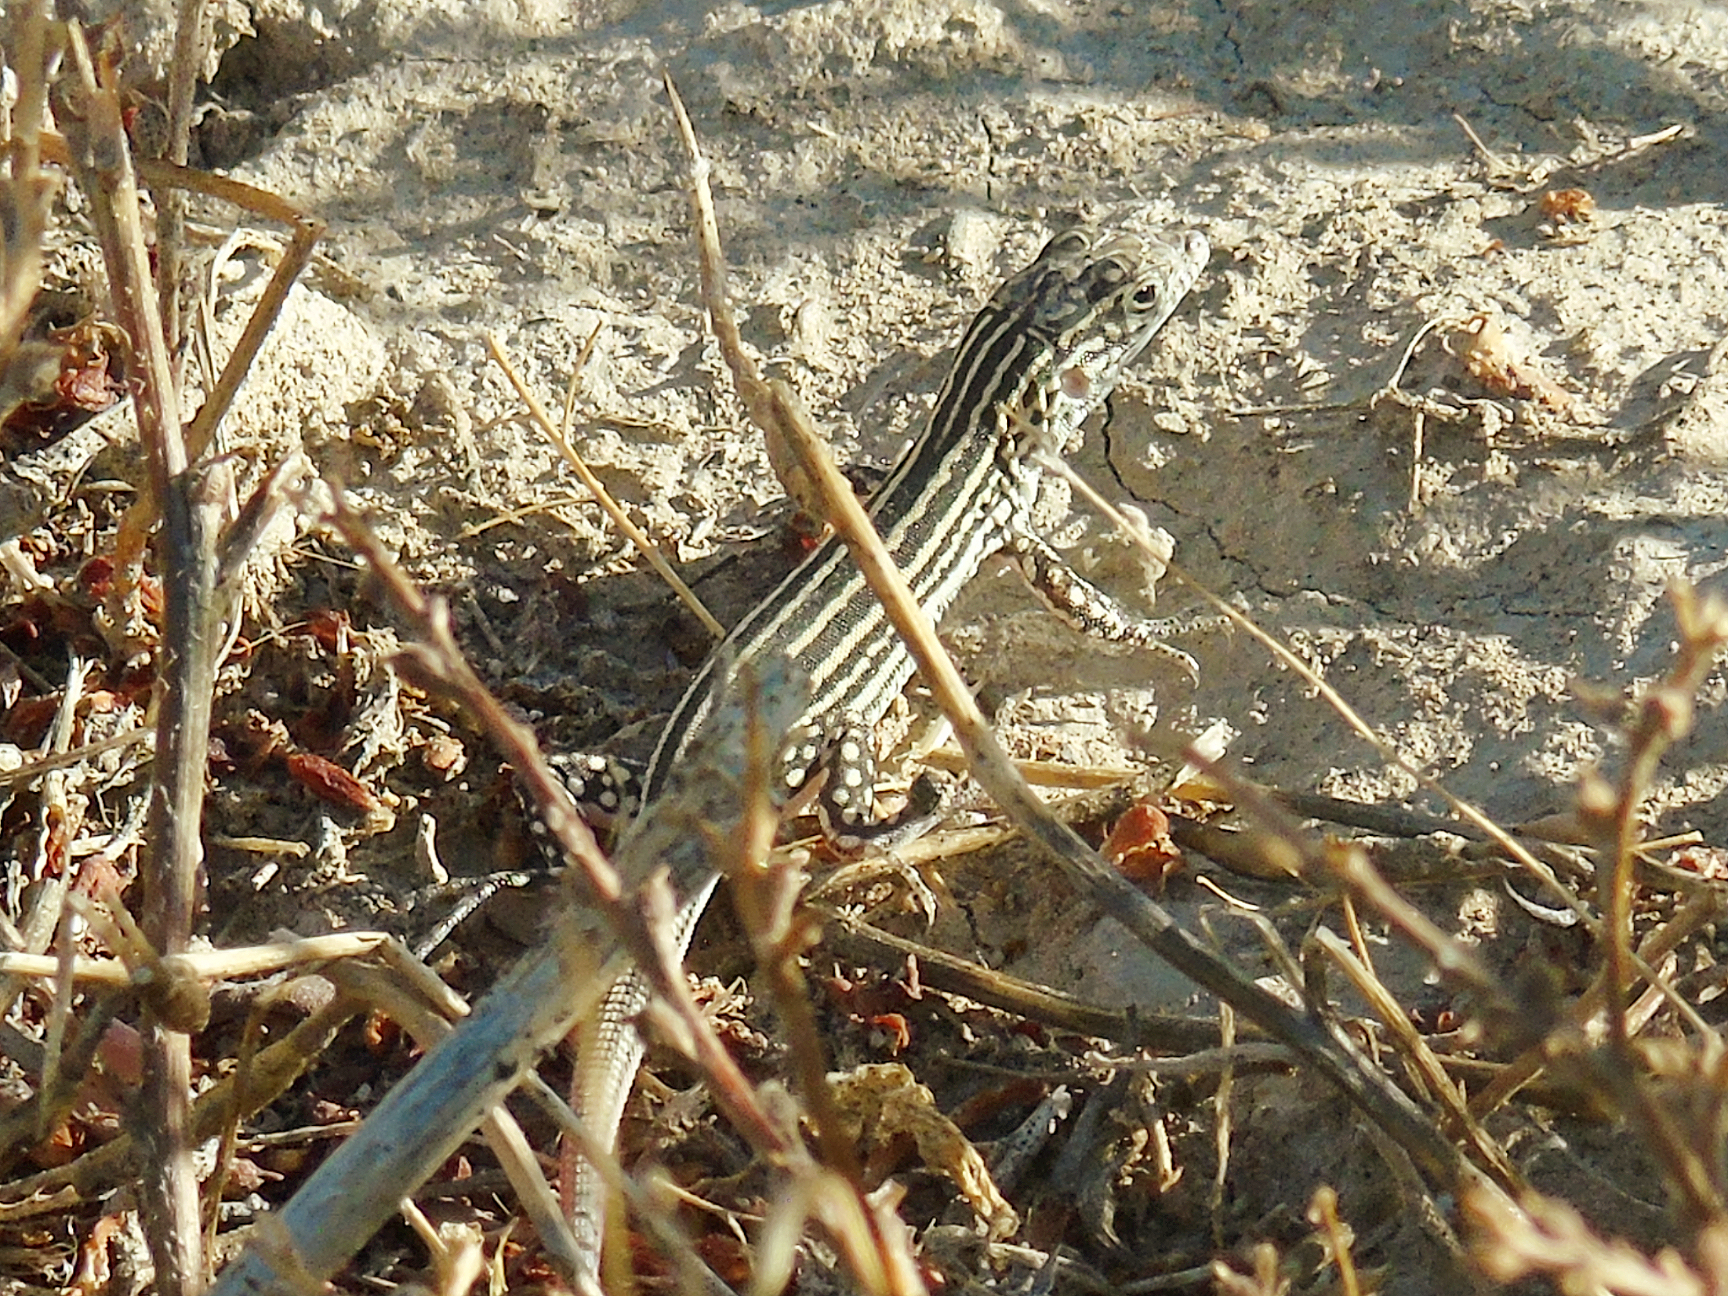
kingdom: Animalia
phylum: Chordata
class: Squamata
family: Lacertidae
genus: Eremias
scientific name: Eremias velox
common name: Central asian racerunner
